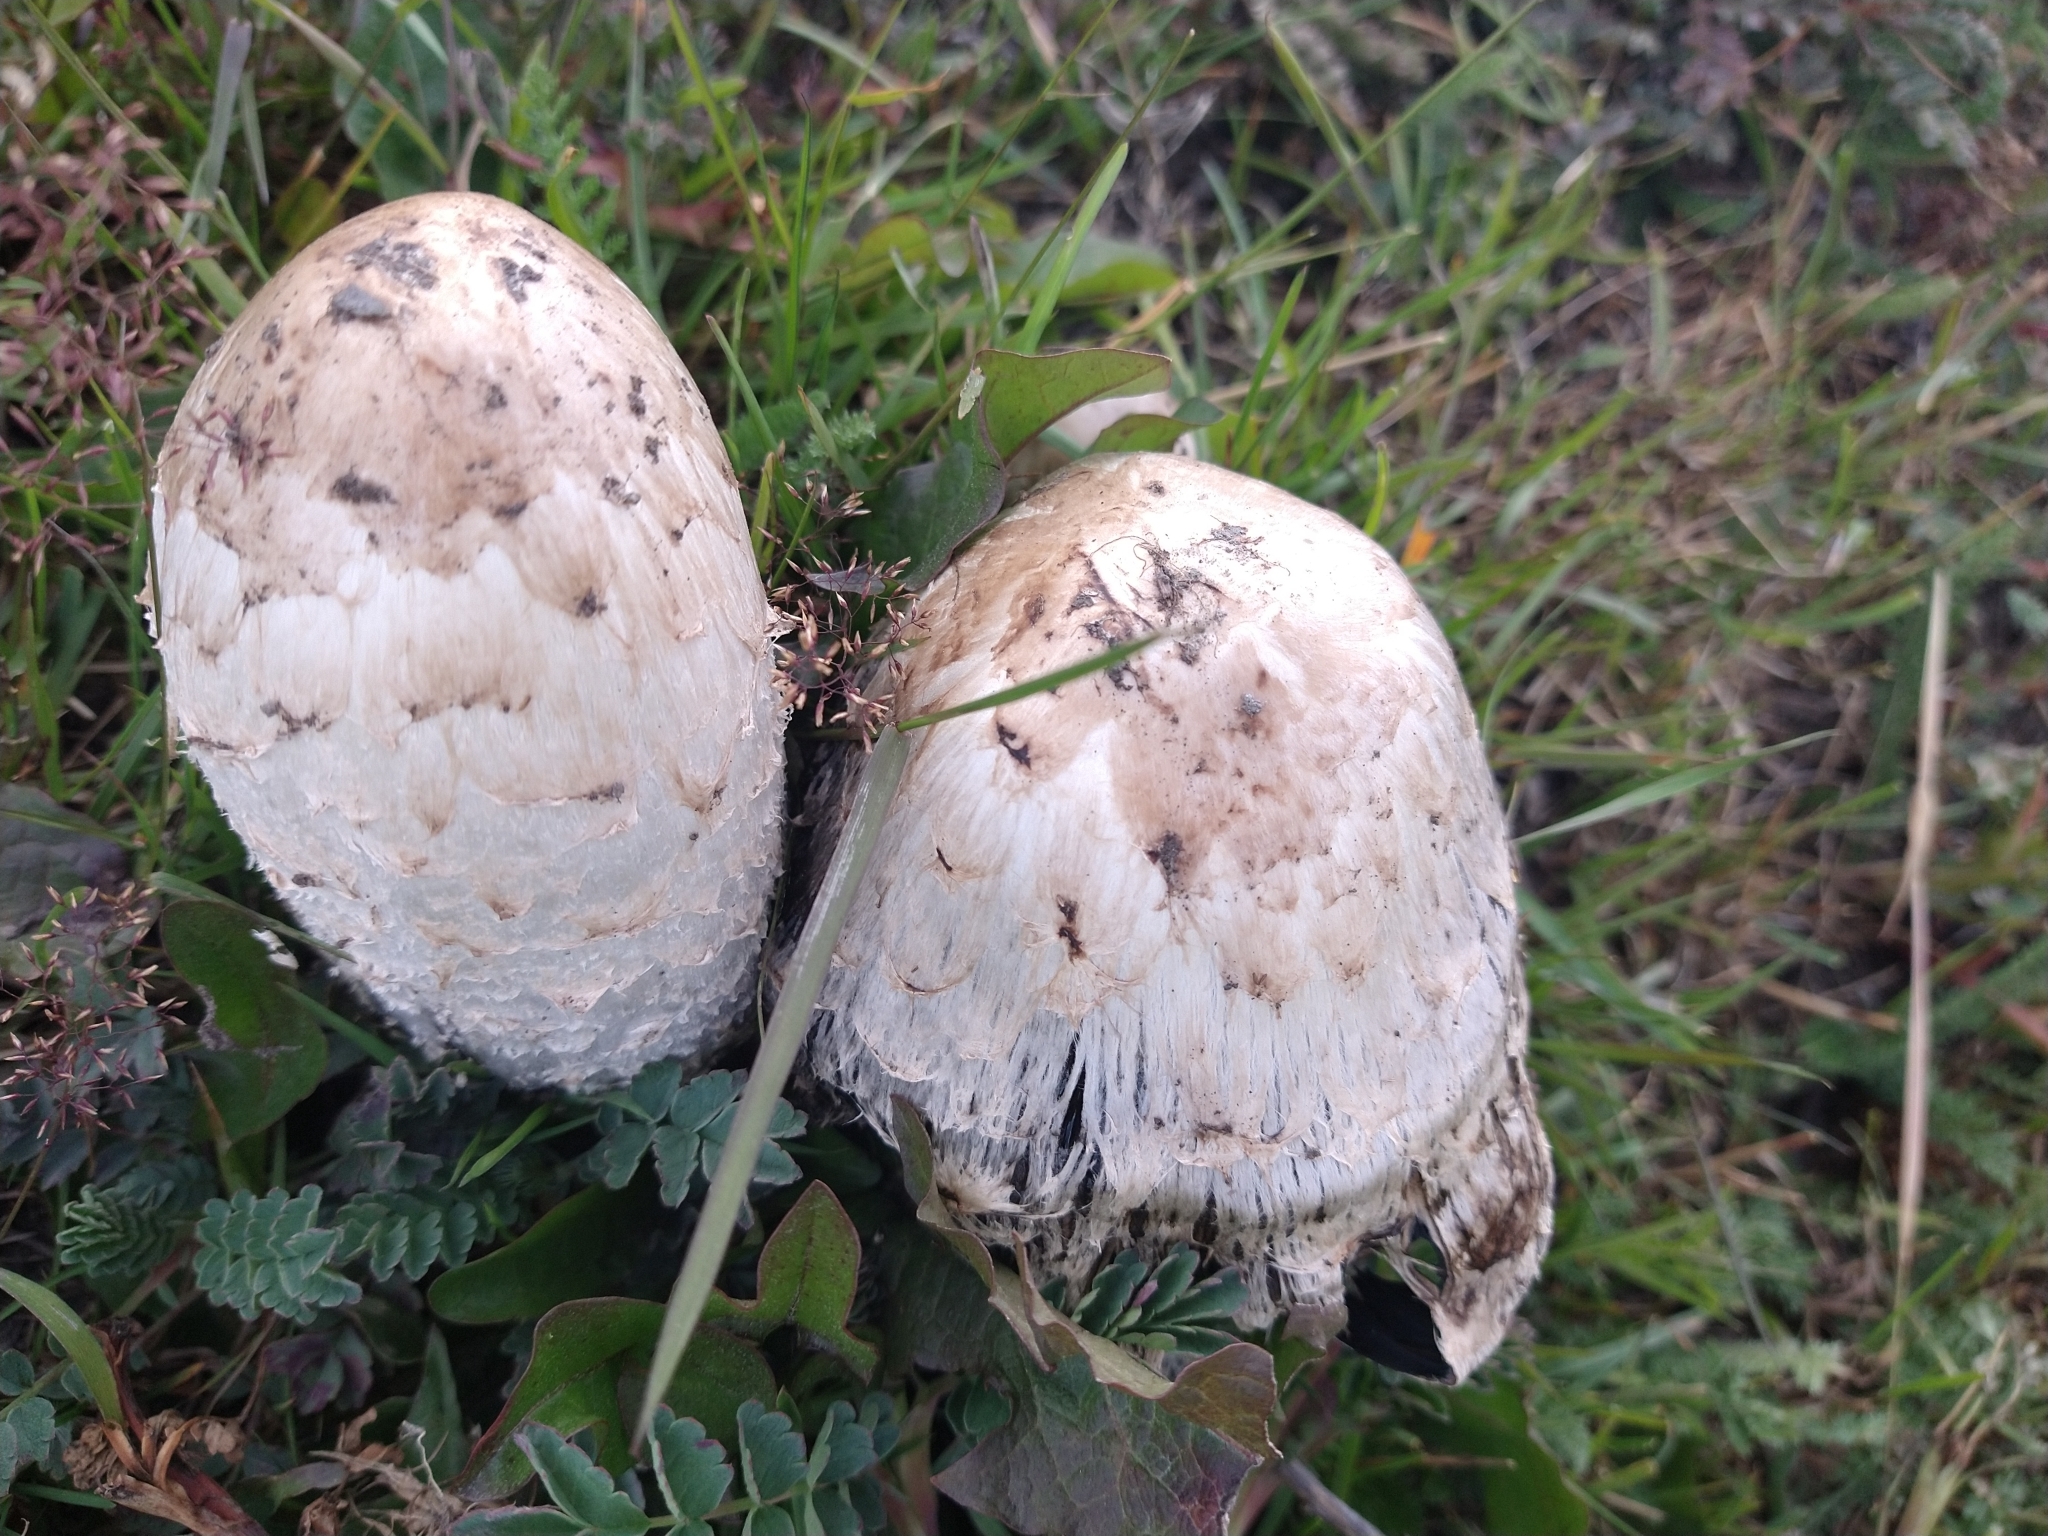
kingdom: Fungi
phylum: Basidiomycota
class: Agaricomycetes
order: Agaricales
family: Agaricaceae
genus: Coprinus
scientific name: Coprinus comatus
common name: Lawyer's wig
